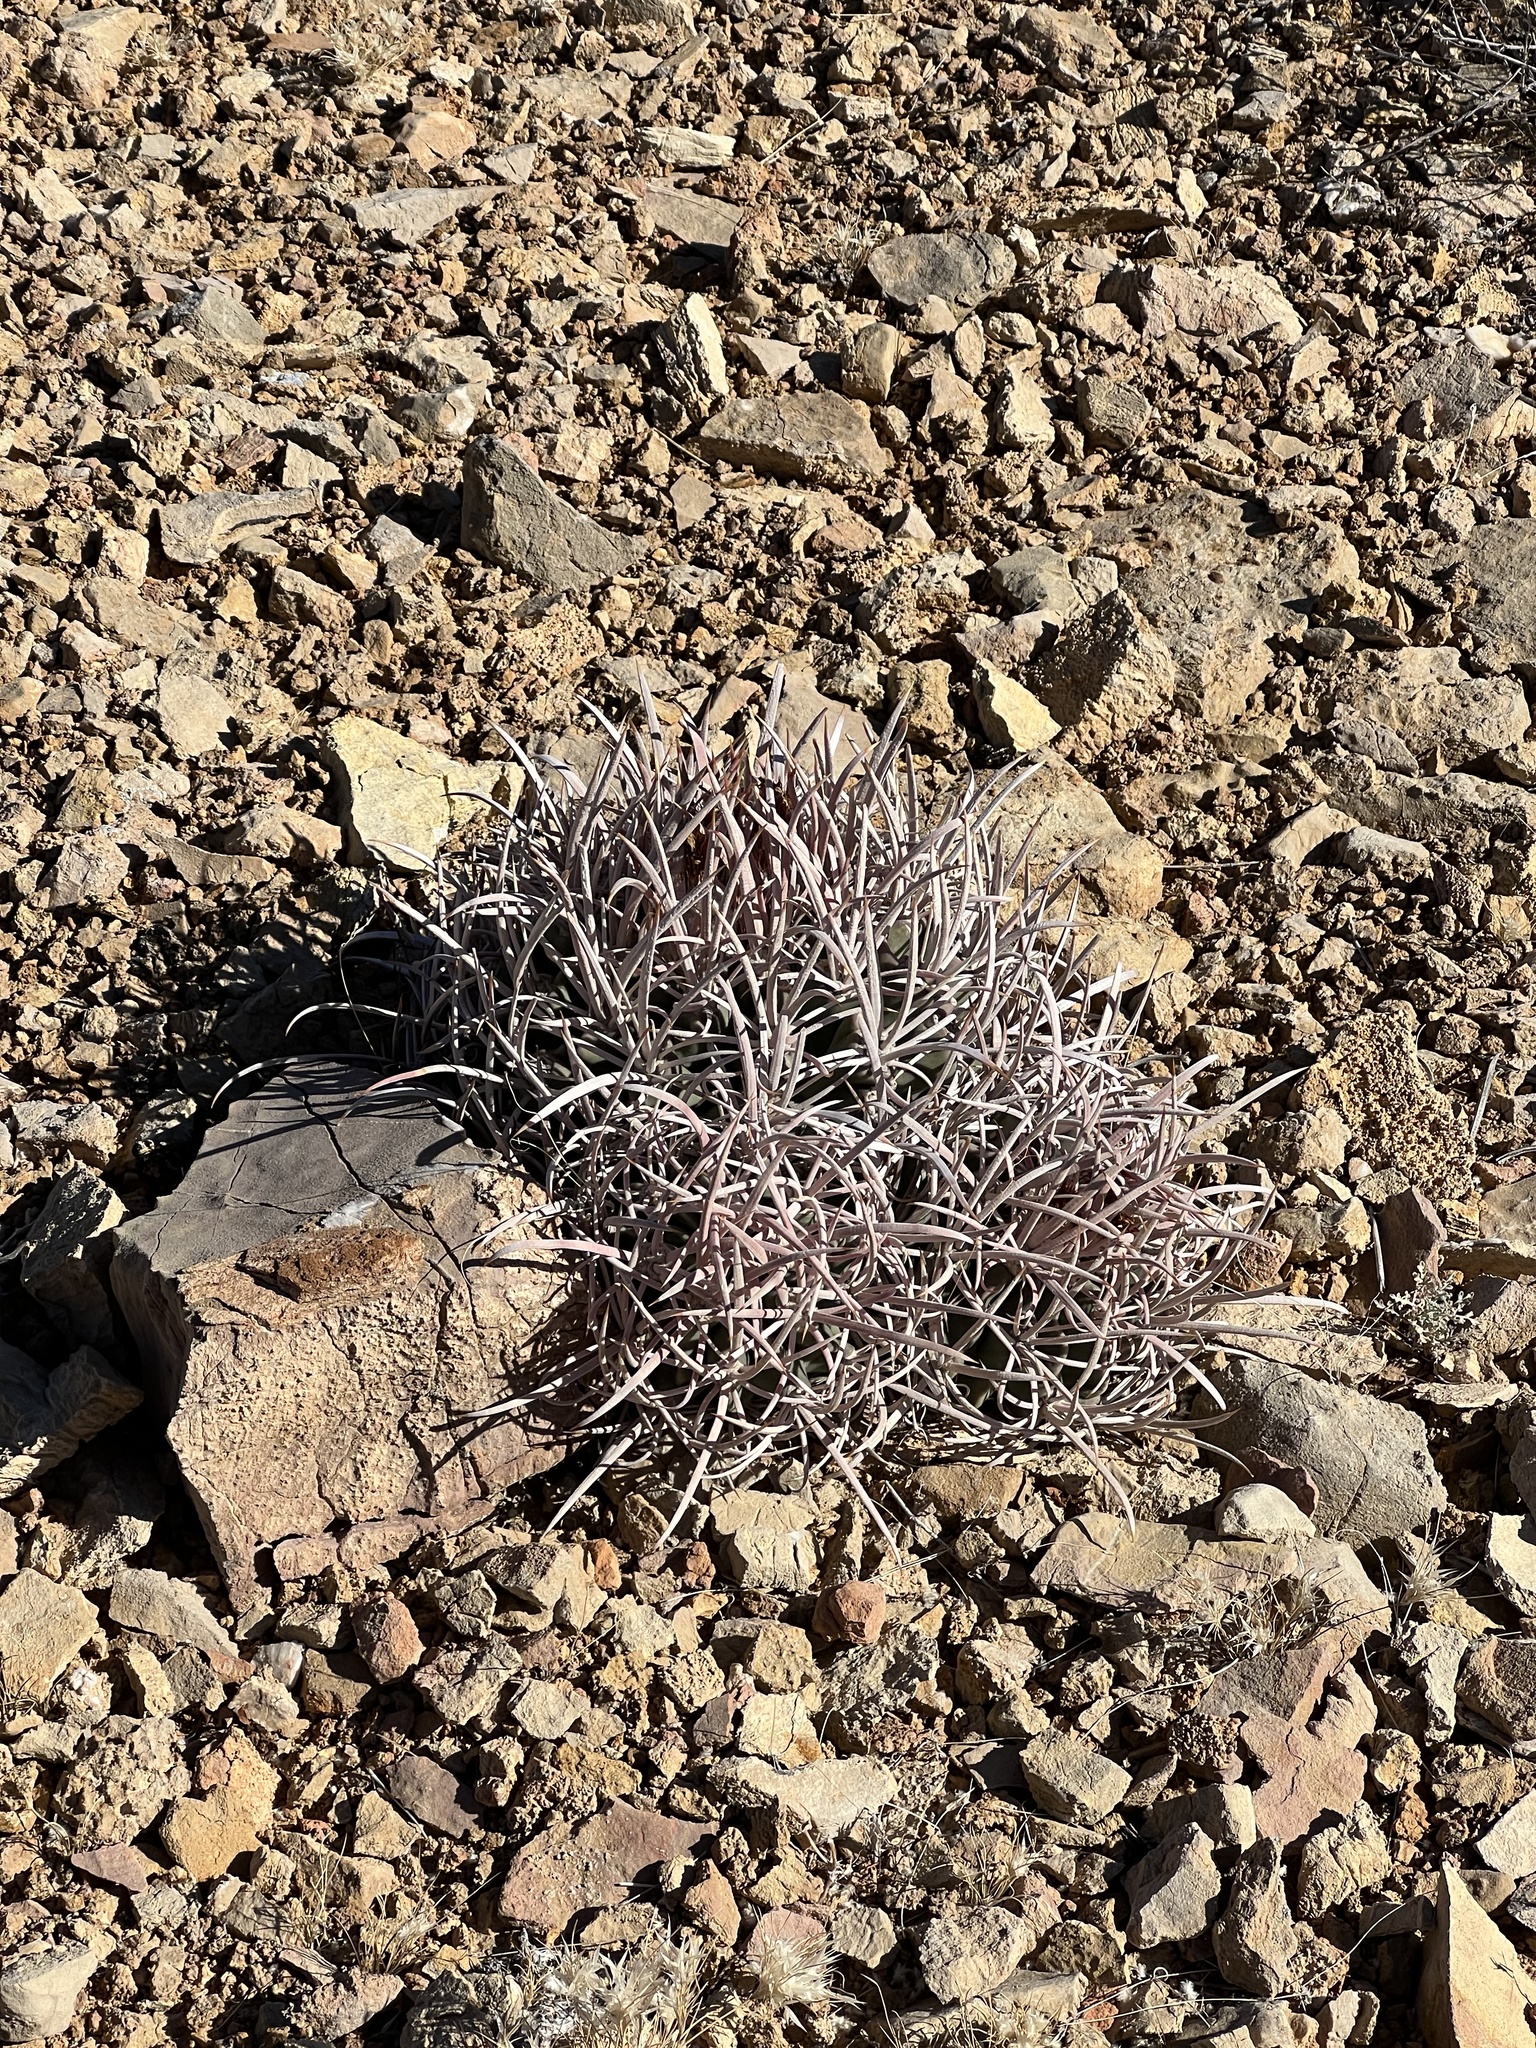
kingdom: Plantae
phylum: Tracheophyta
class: Magnoliopsida
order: Caryophyllales
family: Cactaceae
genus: Echinocactus
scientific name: Echinocactus polycephalus
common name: Cottontop cactus
